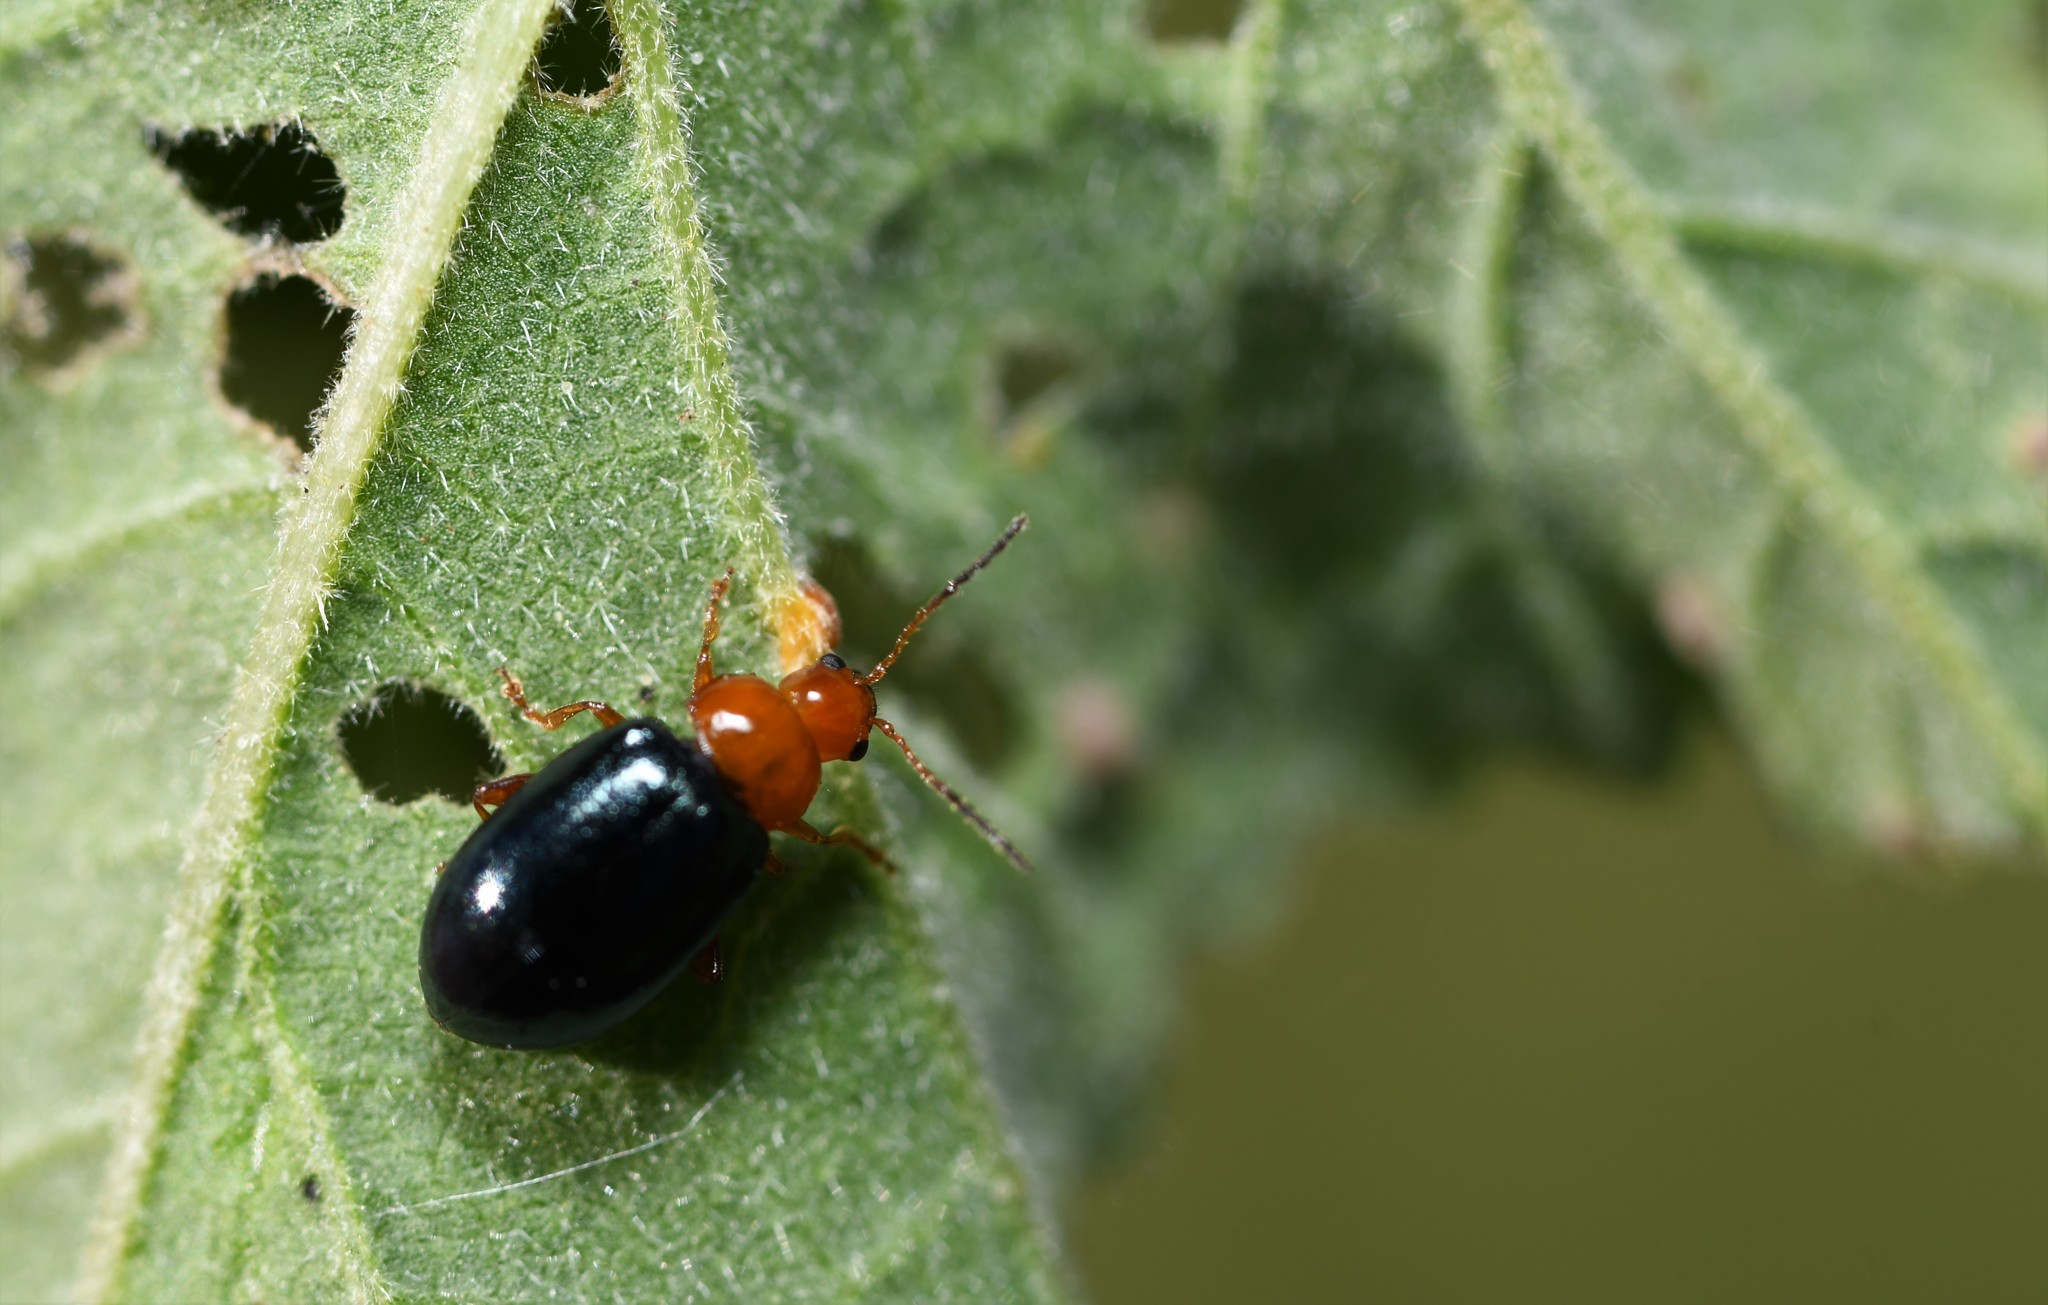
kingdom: Animalia
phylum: Arthropoda
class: Insecta
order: Coleoptera
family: Chrysomelidae
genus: Podagrica
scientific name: Podagrica fuscicornis
